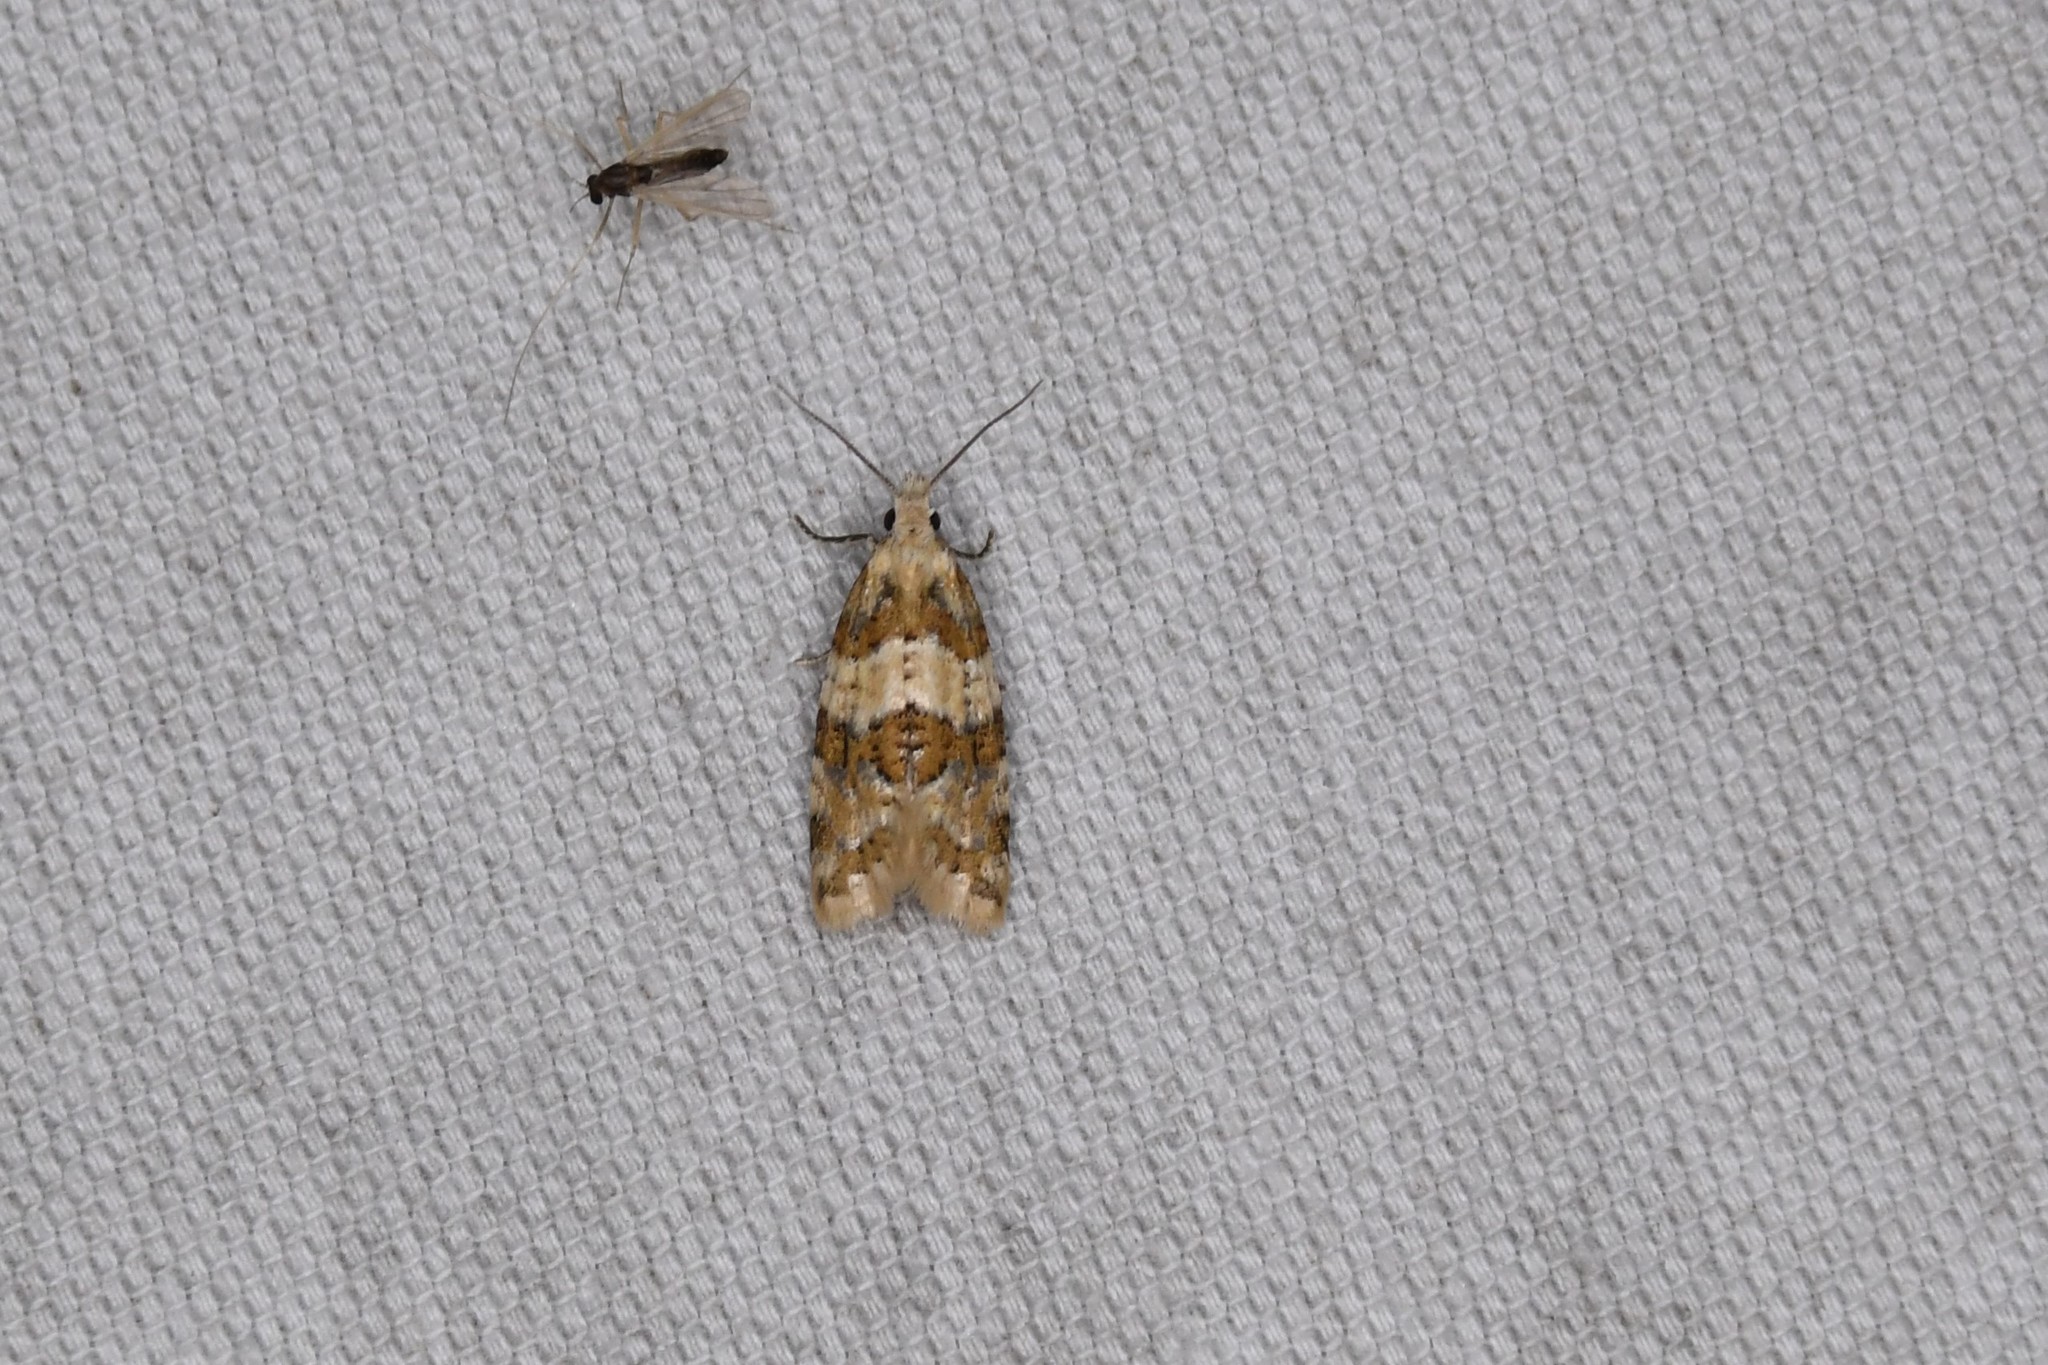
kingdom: Animalia
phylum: Arthropoda
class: Insecta
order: Lepidoptera
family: Tortricidae
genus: Aethes
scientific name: Aethes argentilimitana
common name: Silver-bordered aethes
